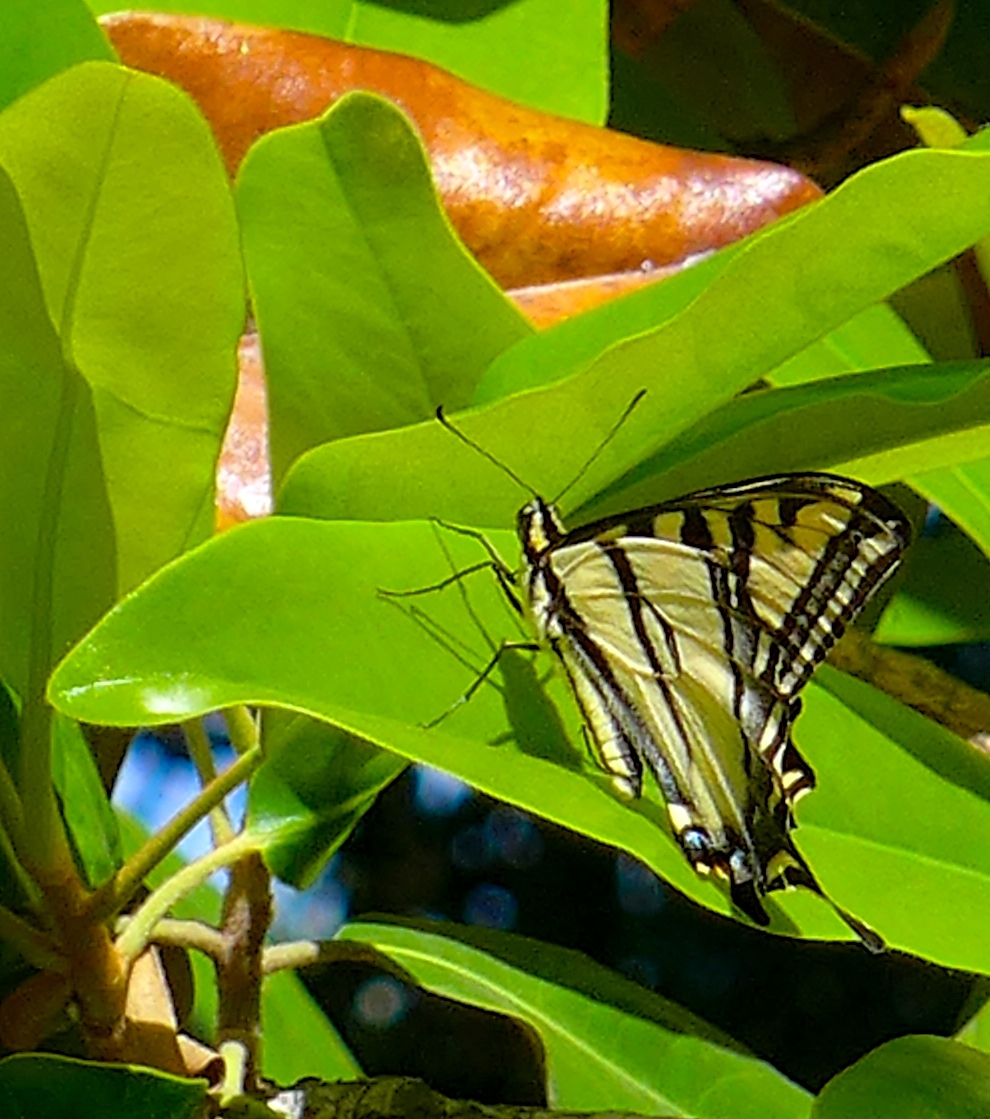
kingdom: Animalia
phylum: Arthropoda
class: Insecta
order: Lepidoptera
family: Papilionidae
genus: Papilio
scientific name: Papilio rutulus
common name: Western tiger swallowtail
